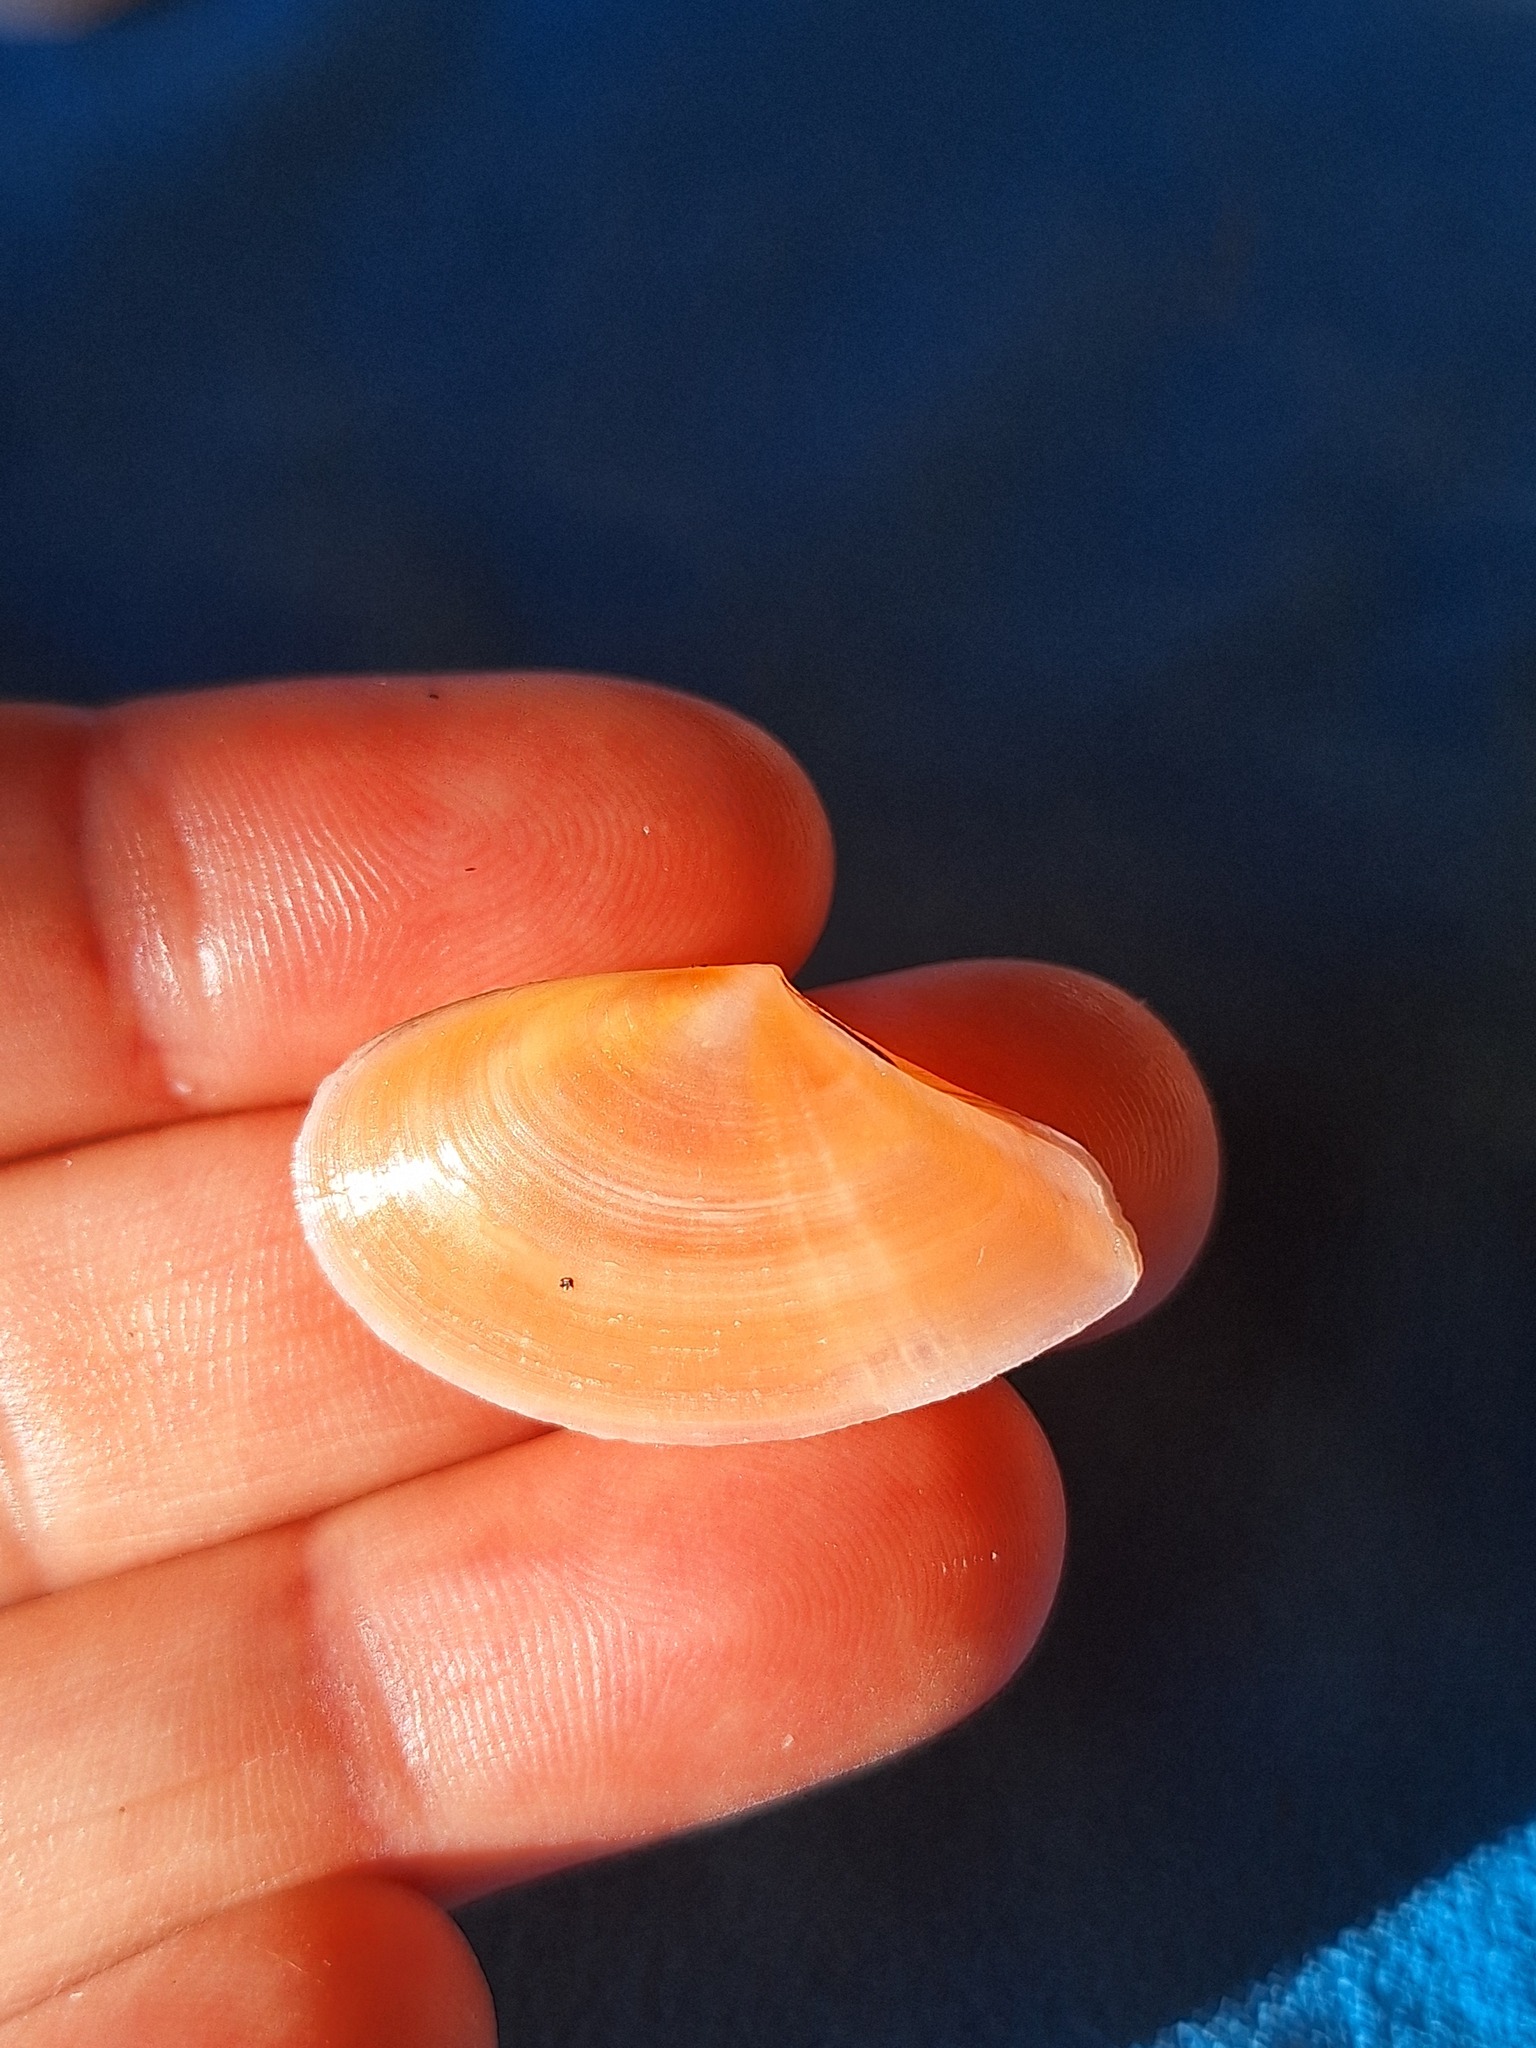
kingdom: Animalia
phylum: Mollusca
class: Bivalvia
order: Cardiida
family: Tellinidae
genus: Bosemprella
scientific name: Bosemprella incarnata
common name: Red tellin
